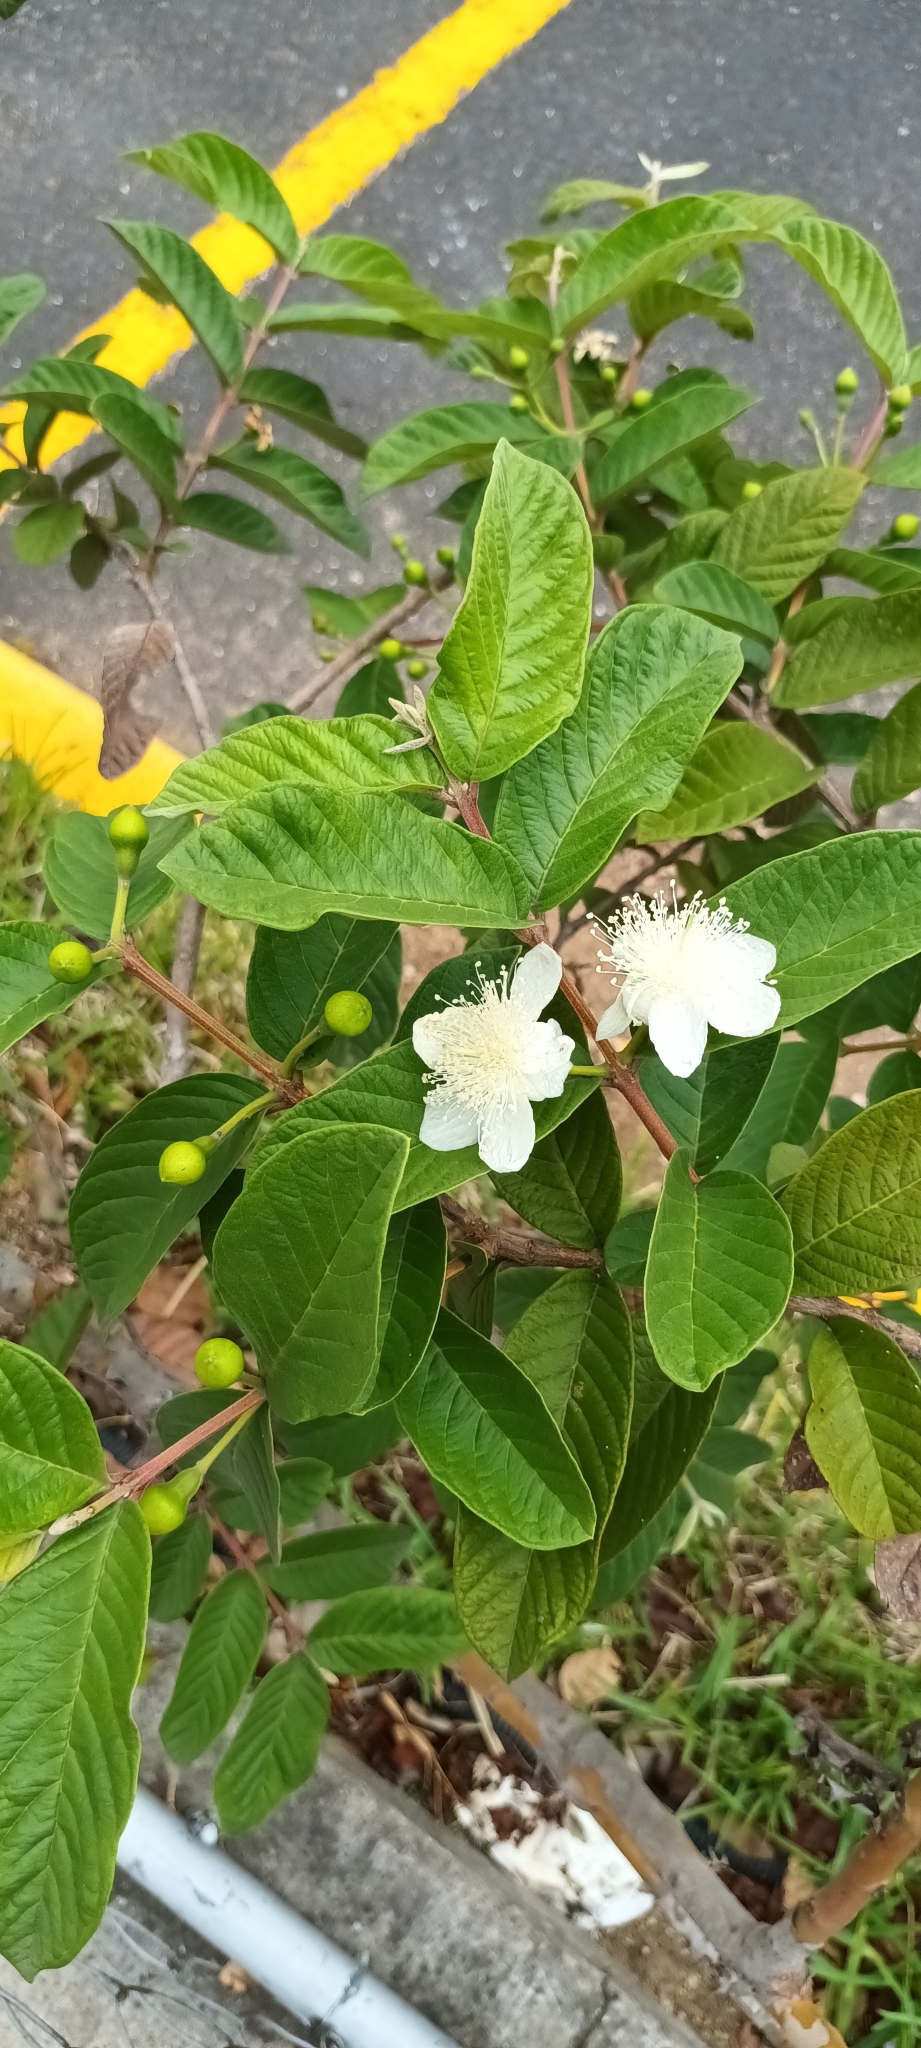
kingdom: Plantae
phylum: Tracheophyta
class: Magnoliopsida
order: Myrtales
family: Myrtaceae
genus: Psidium
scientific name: Psidium guajava
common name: Guava
